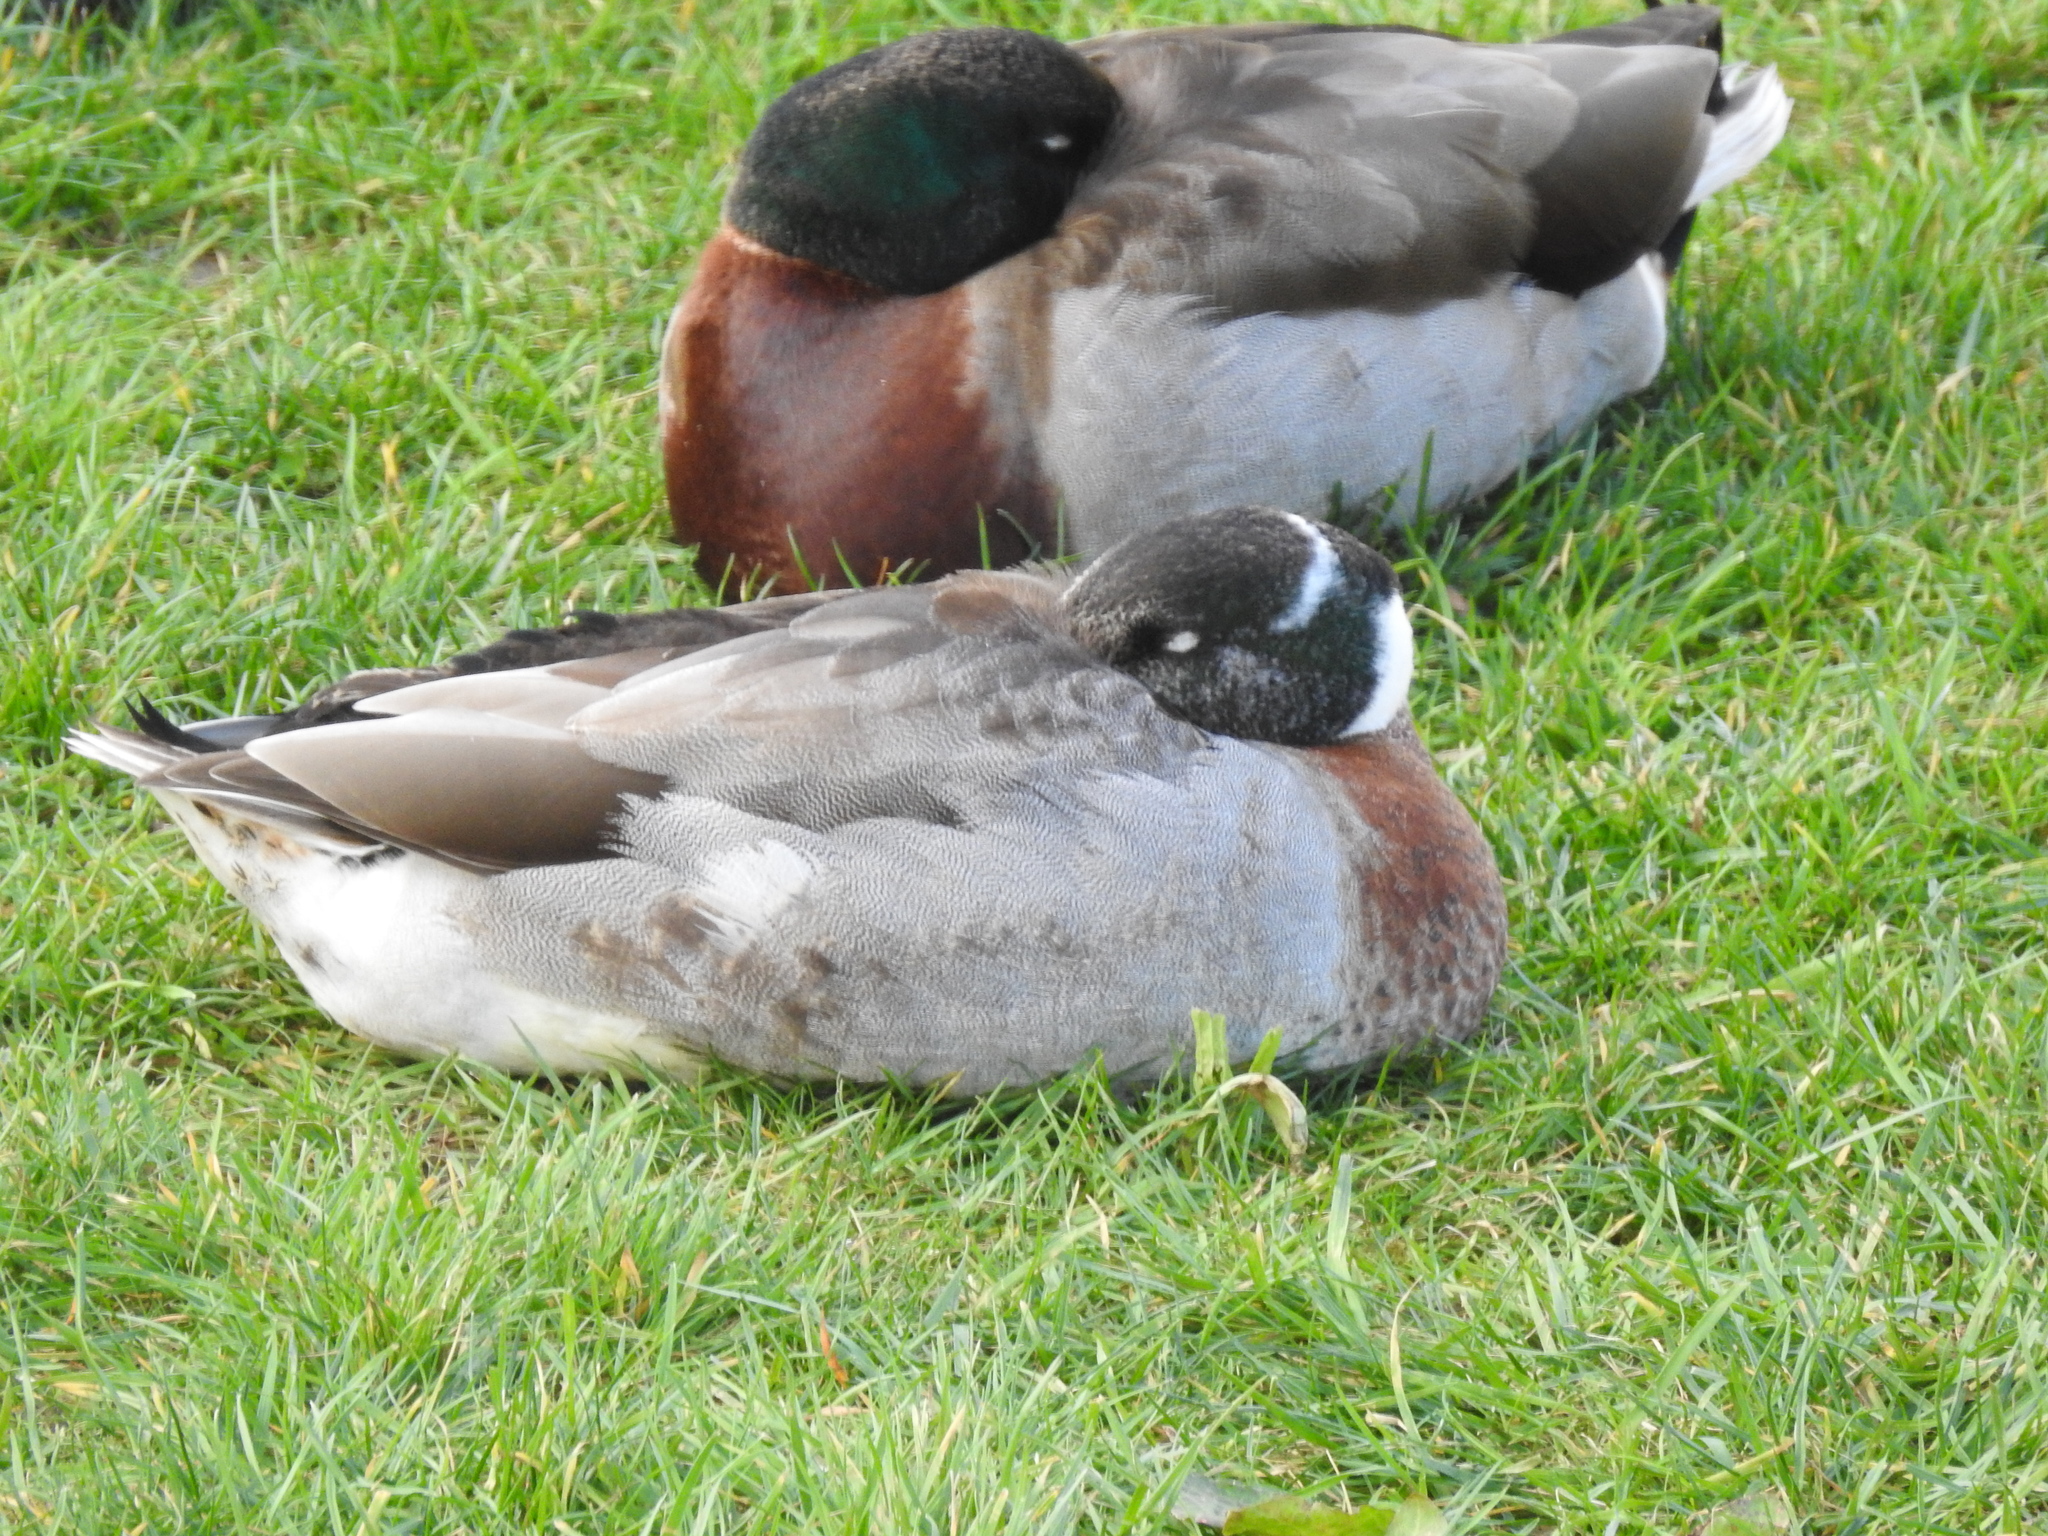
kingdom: Animalia
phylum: Chordata
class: Aves
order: Anseriformes
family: Anatidae
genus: Anas
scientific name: Anas platyrhynchos
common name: Mallard
